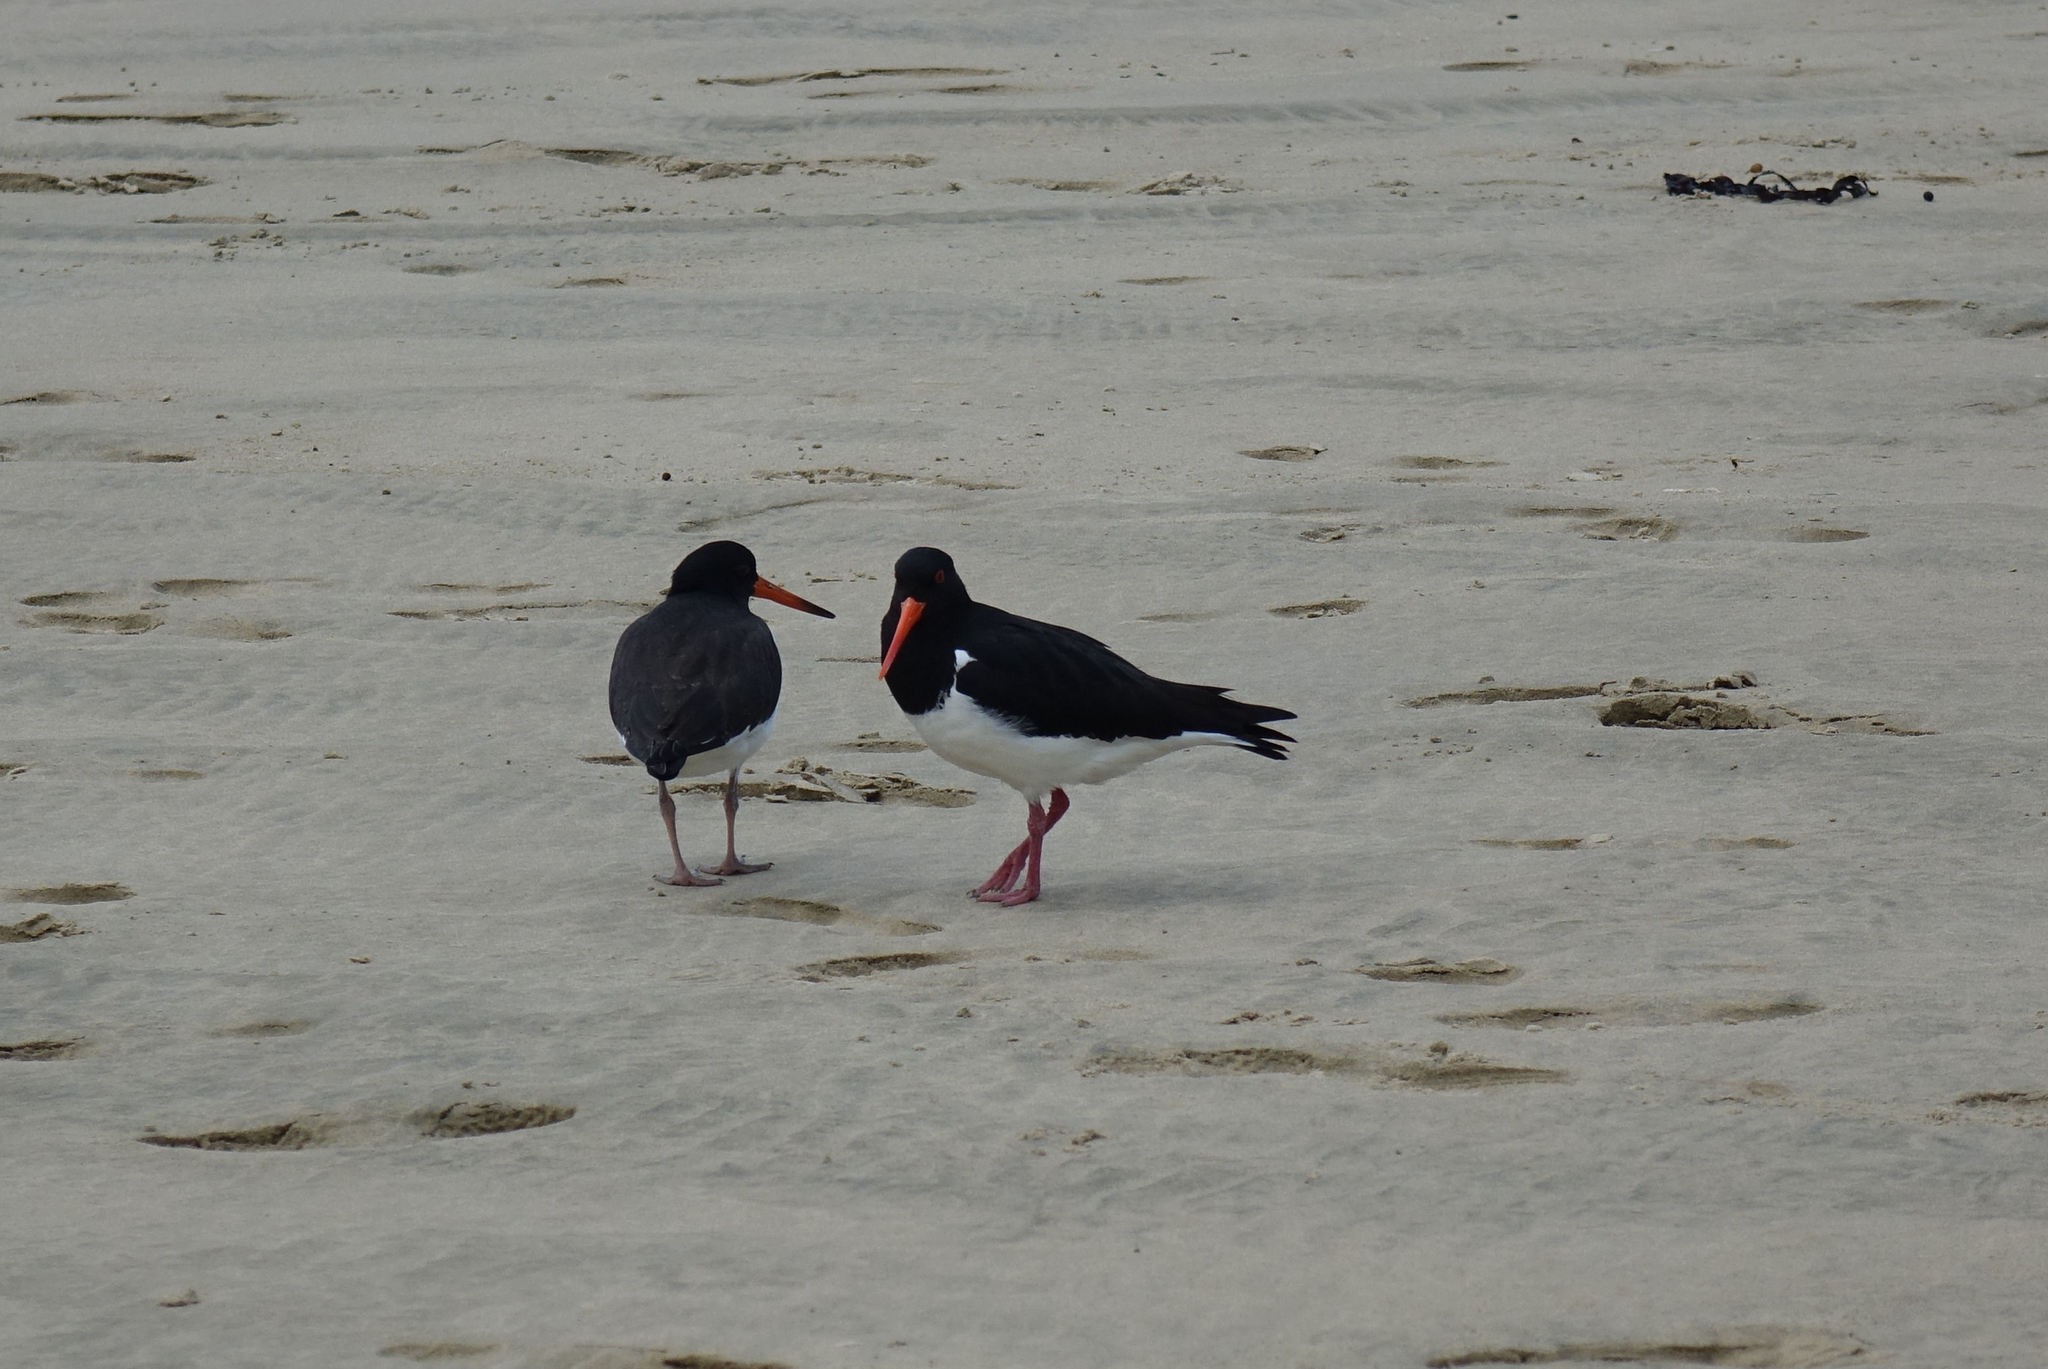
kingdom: Animalia
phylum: Chordata
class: Aves
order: Charadriiformes
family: Haematopodidae
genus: Haematopus
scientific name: Haematopus finschi
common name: South island oystercatcher
